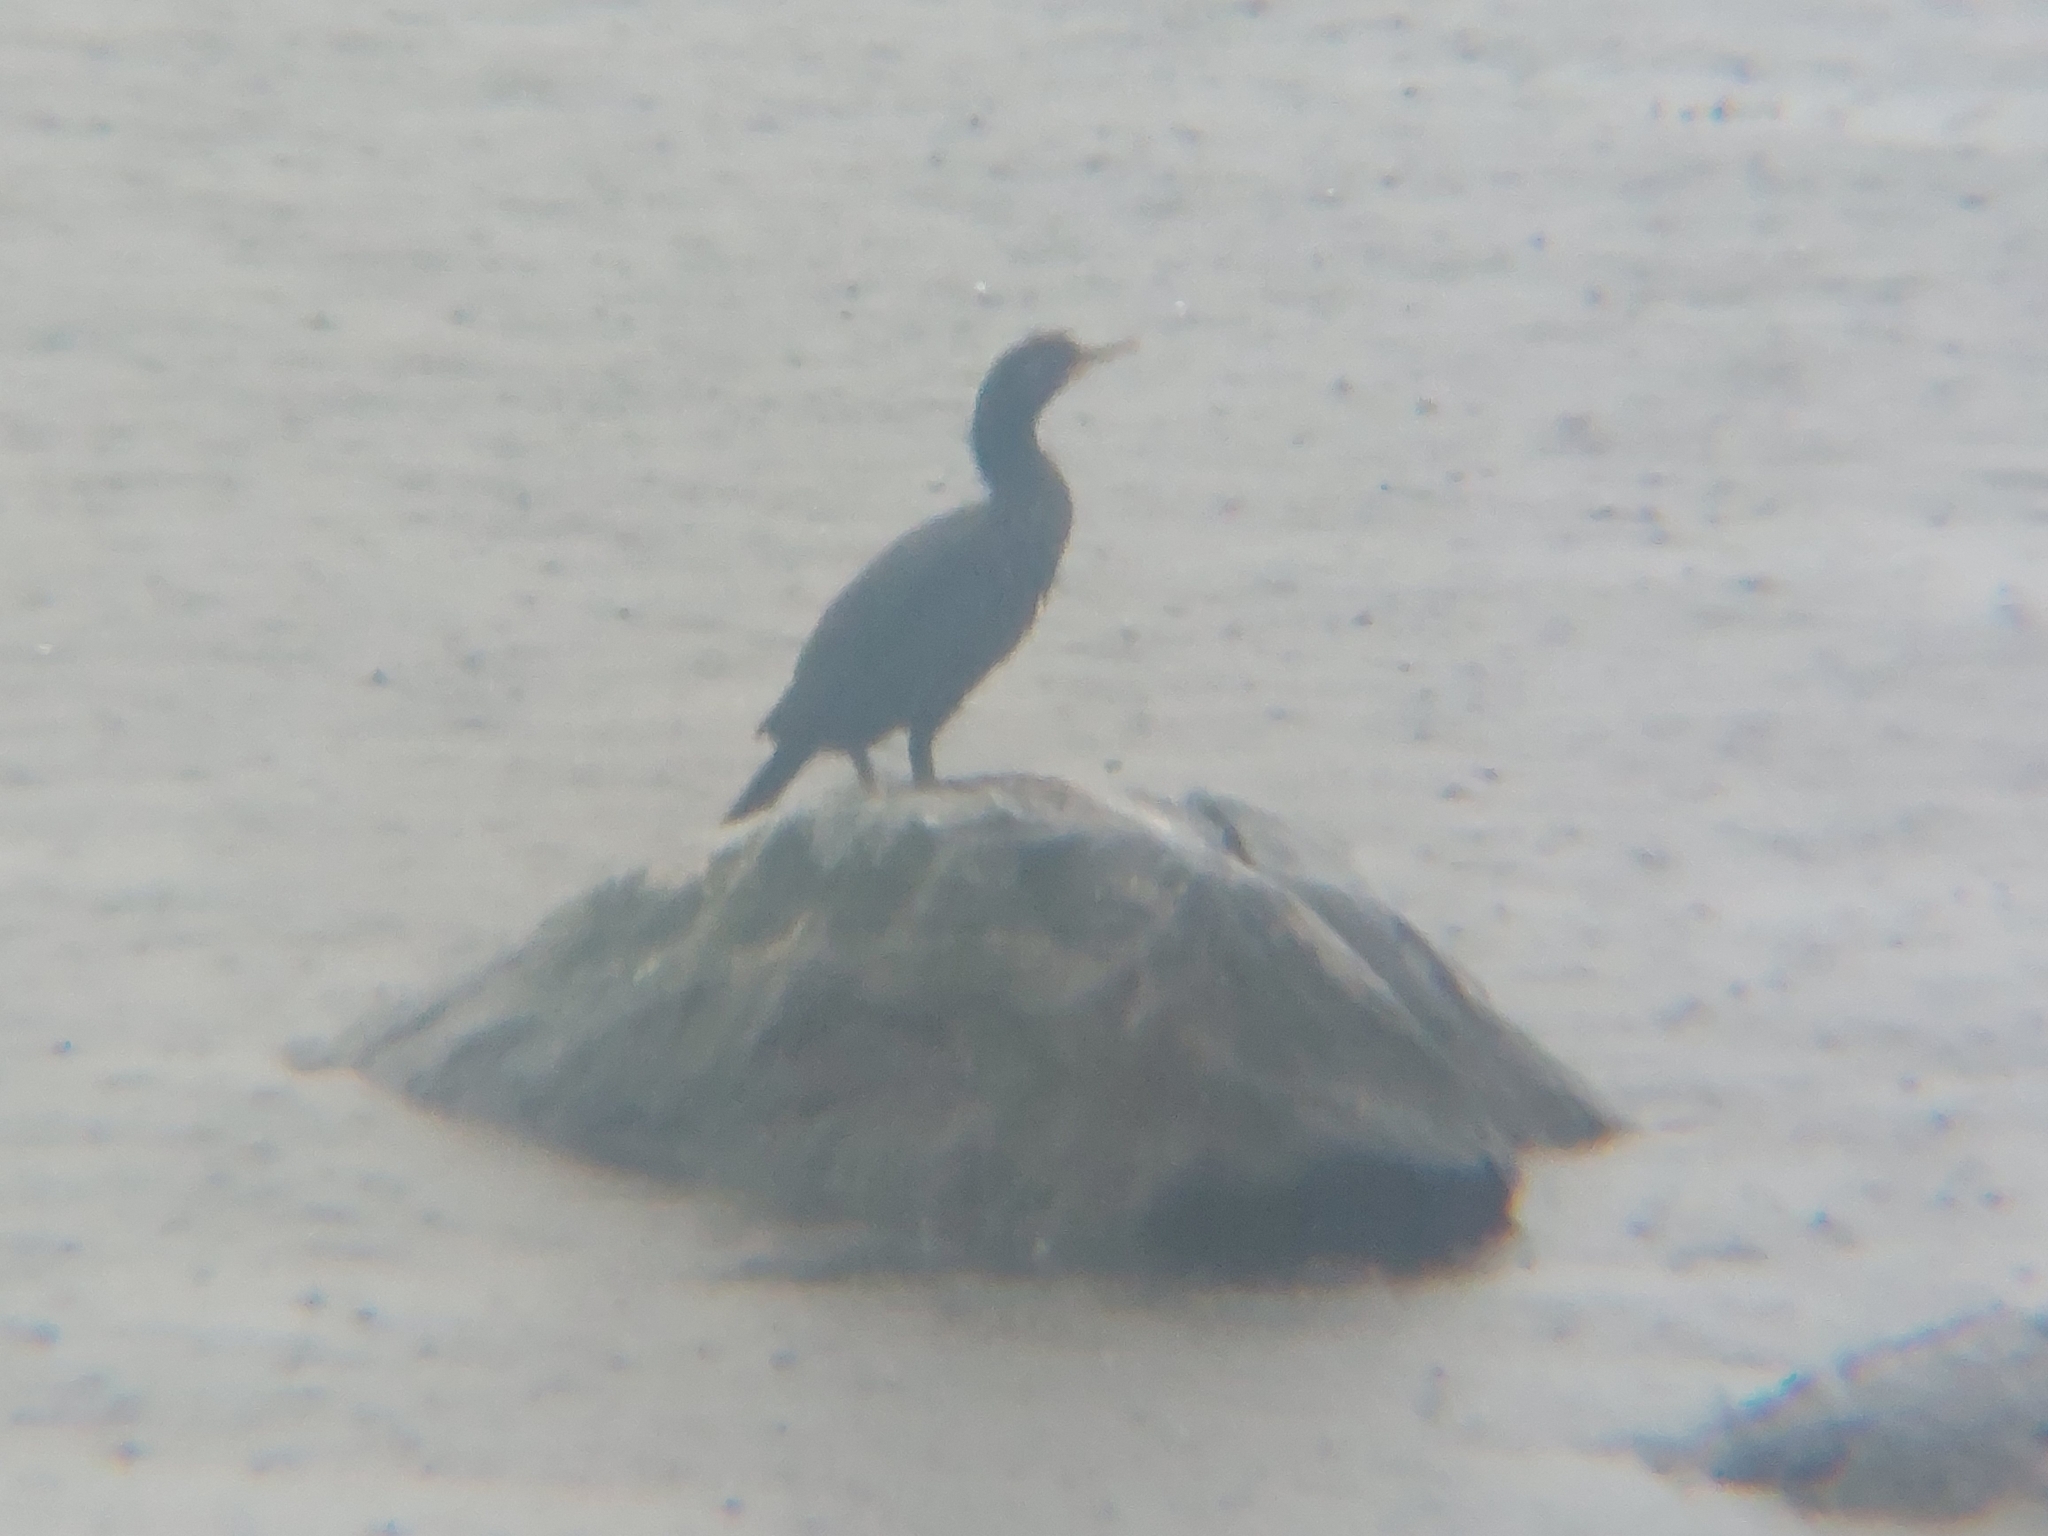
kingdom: Animalia
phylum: Chordata
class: Aves
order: Suliformes
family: Phalacrocoracidae
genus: Phalacrocorax
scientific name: Phalacrocorax carbo
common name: Great cormorant
